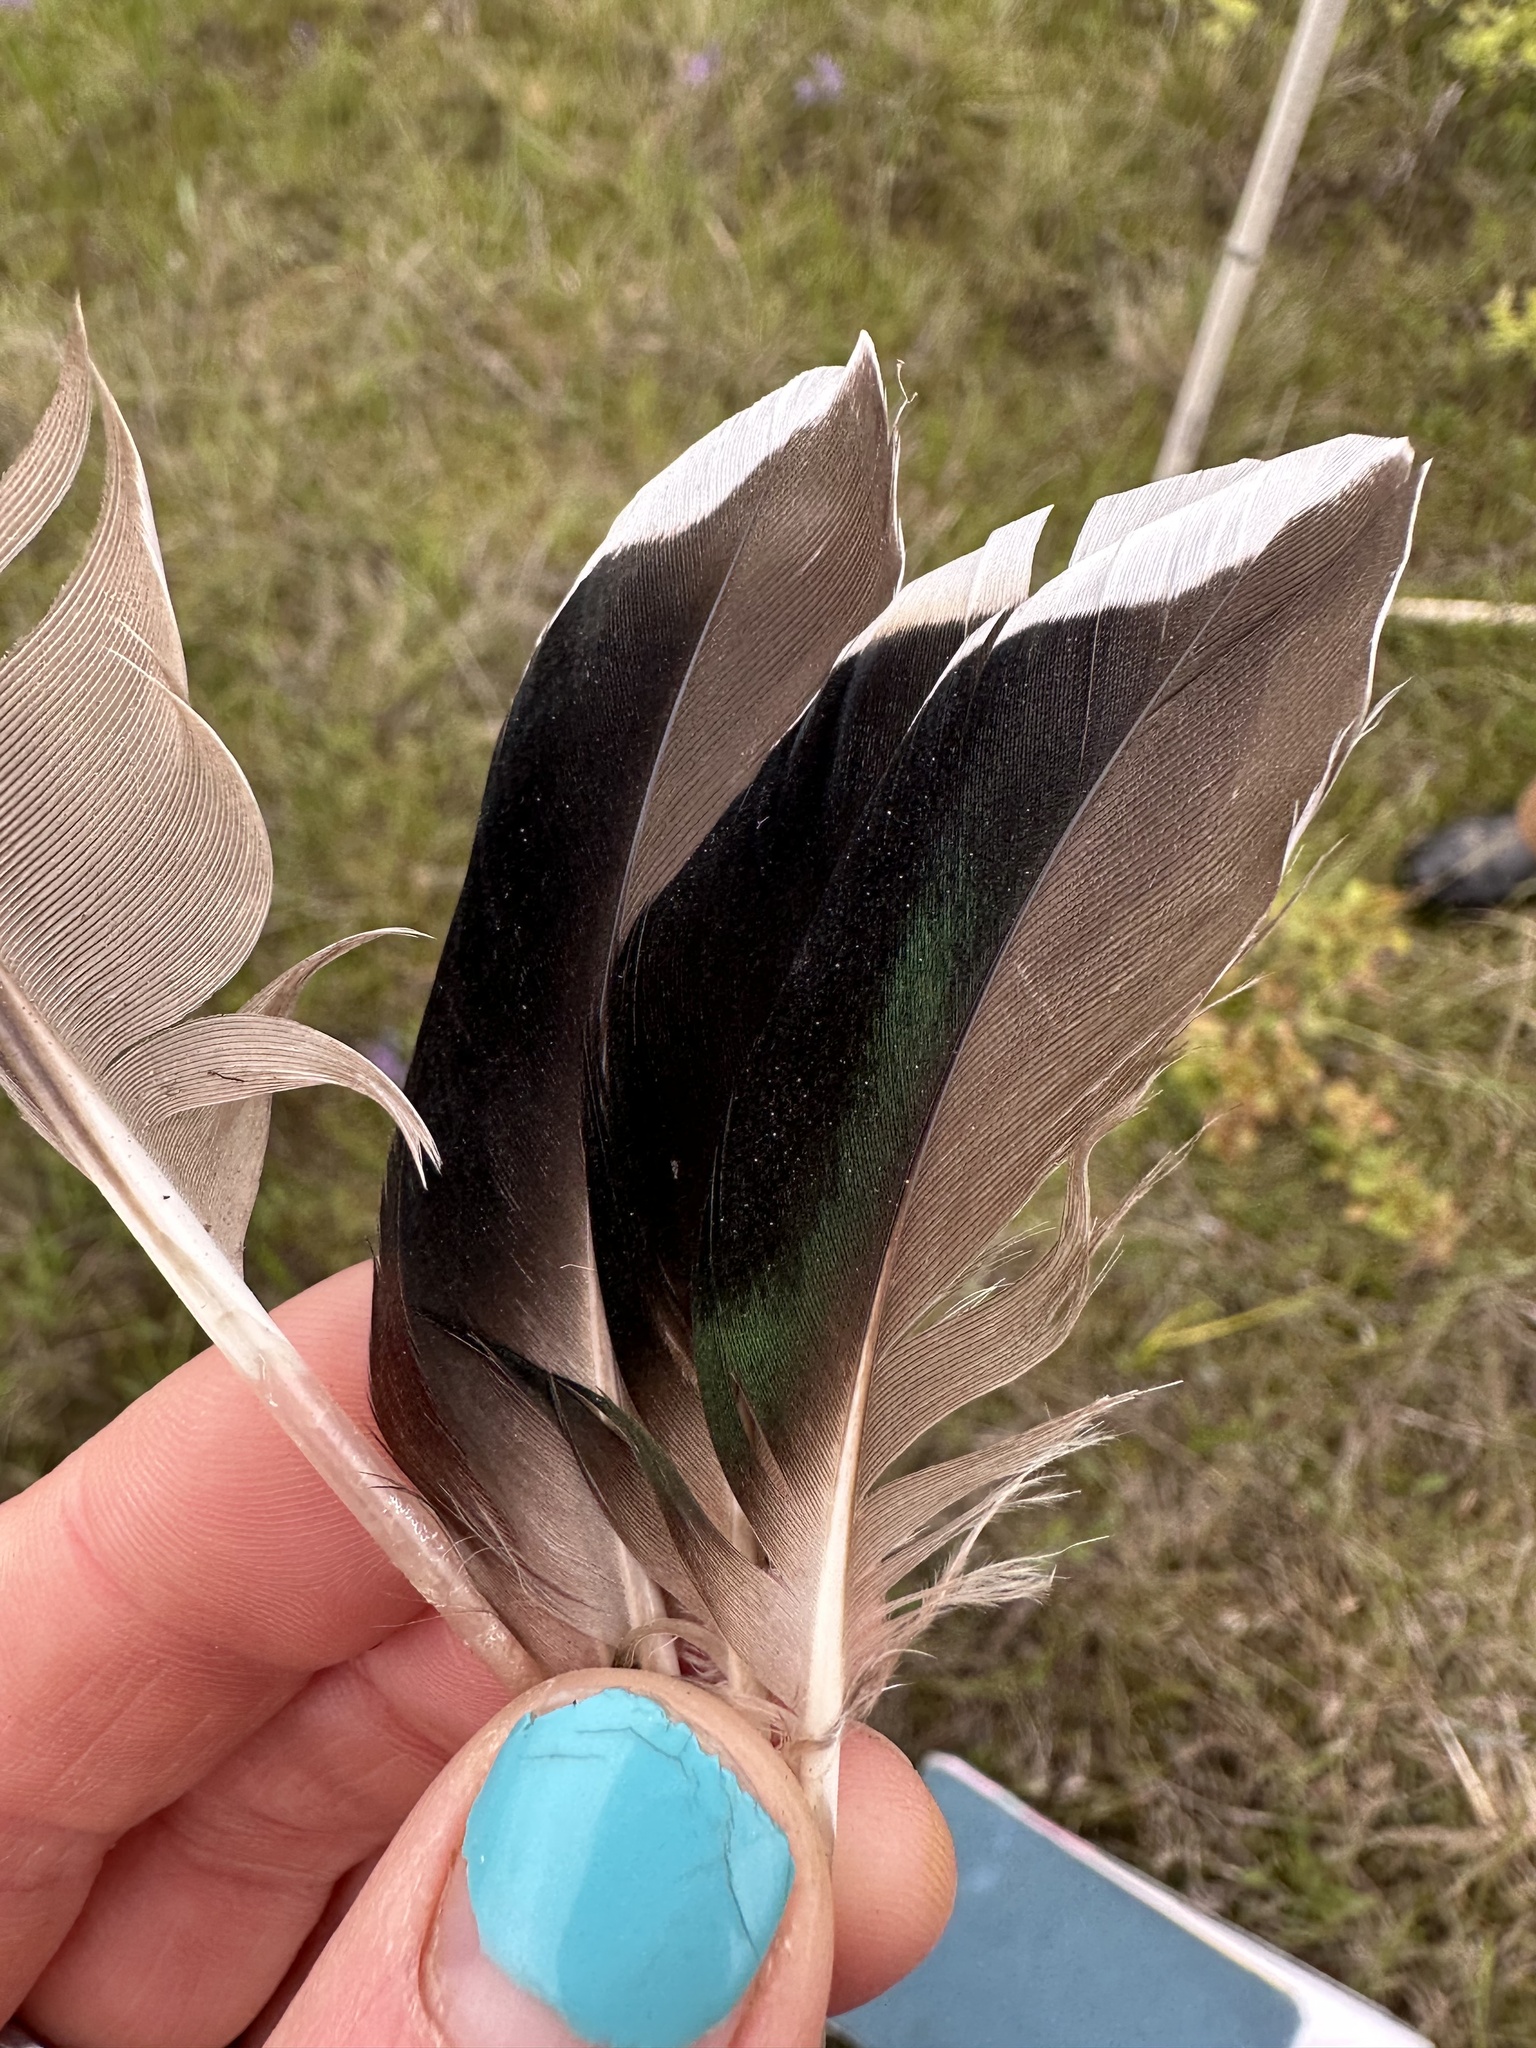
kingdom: Animalia
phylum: Chordata
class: Aves
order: Anseriformes
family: Anatidae
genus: Anas
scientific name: Anas crecca
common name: Eurasian teal
